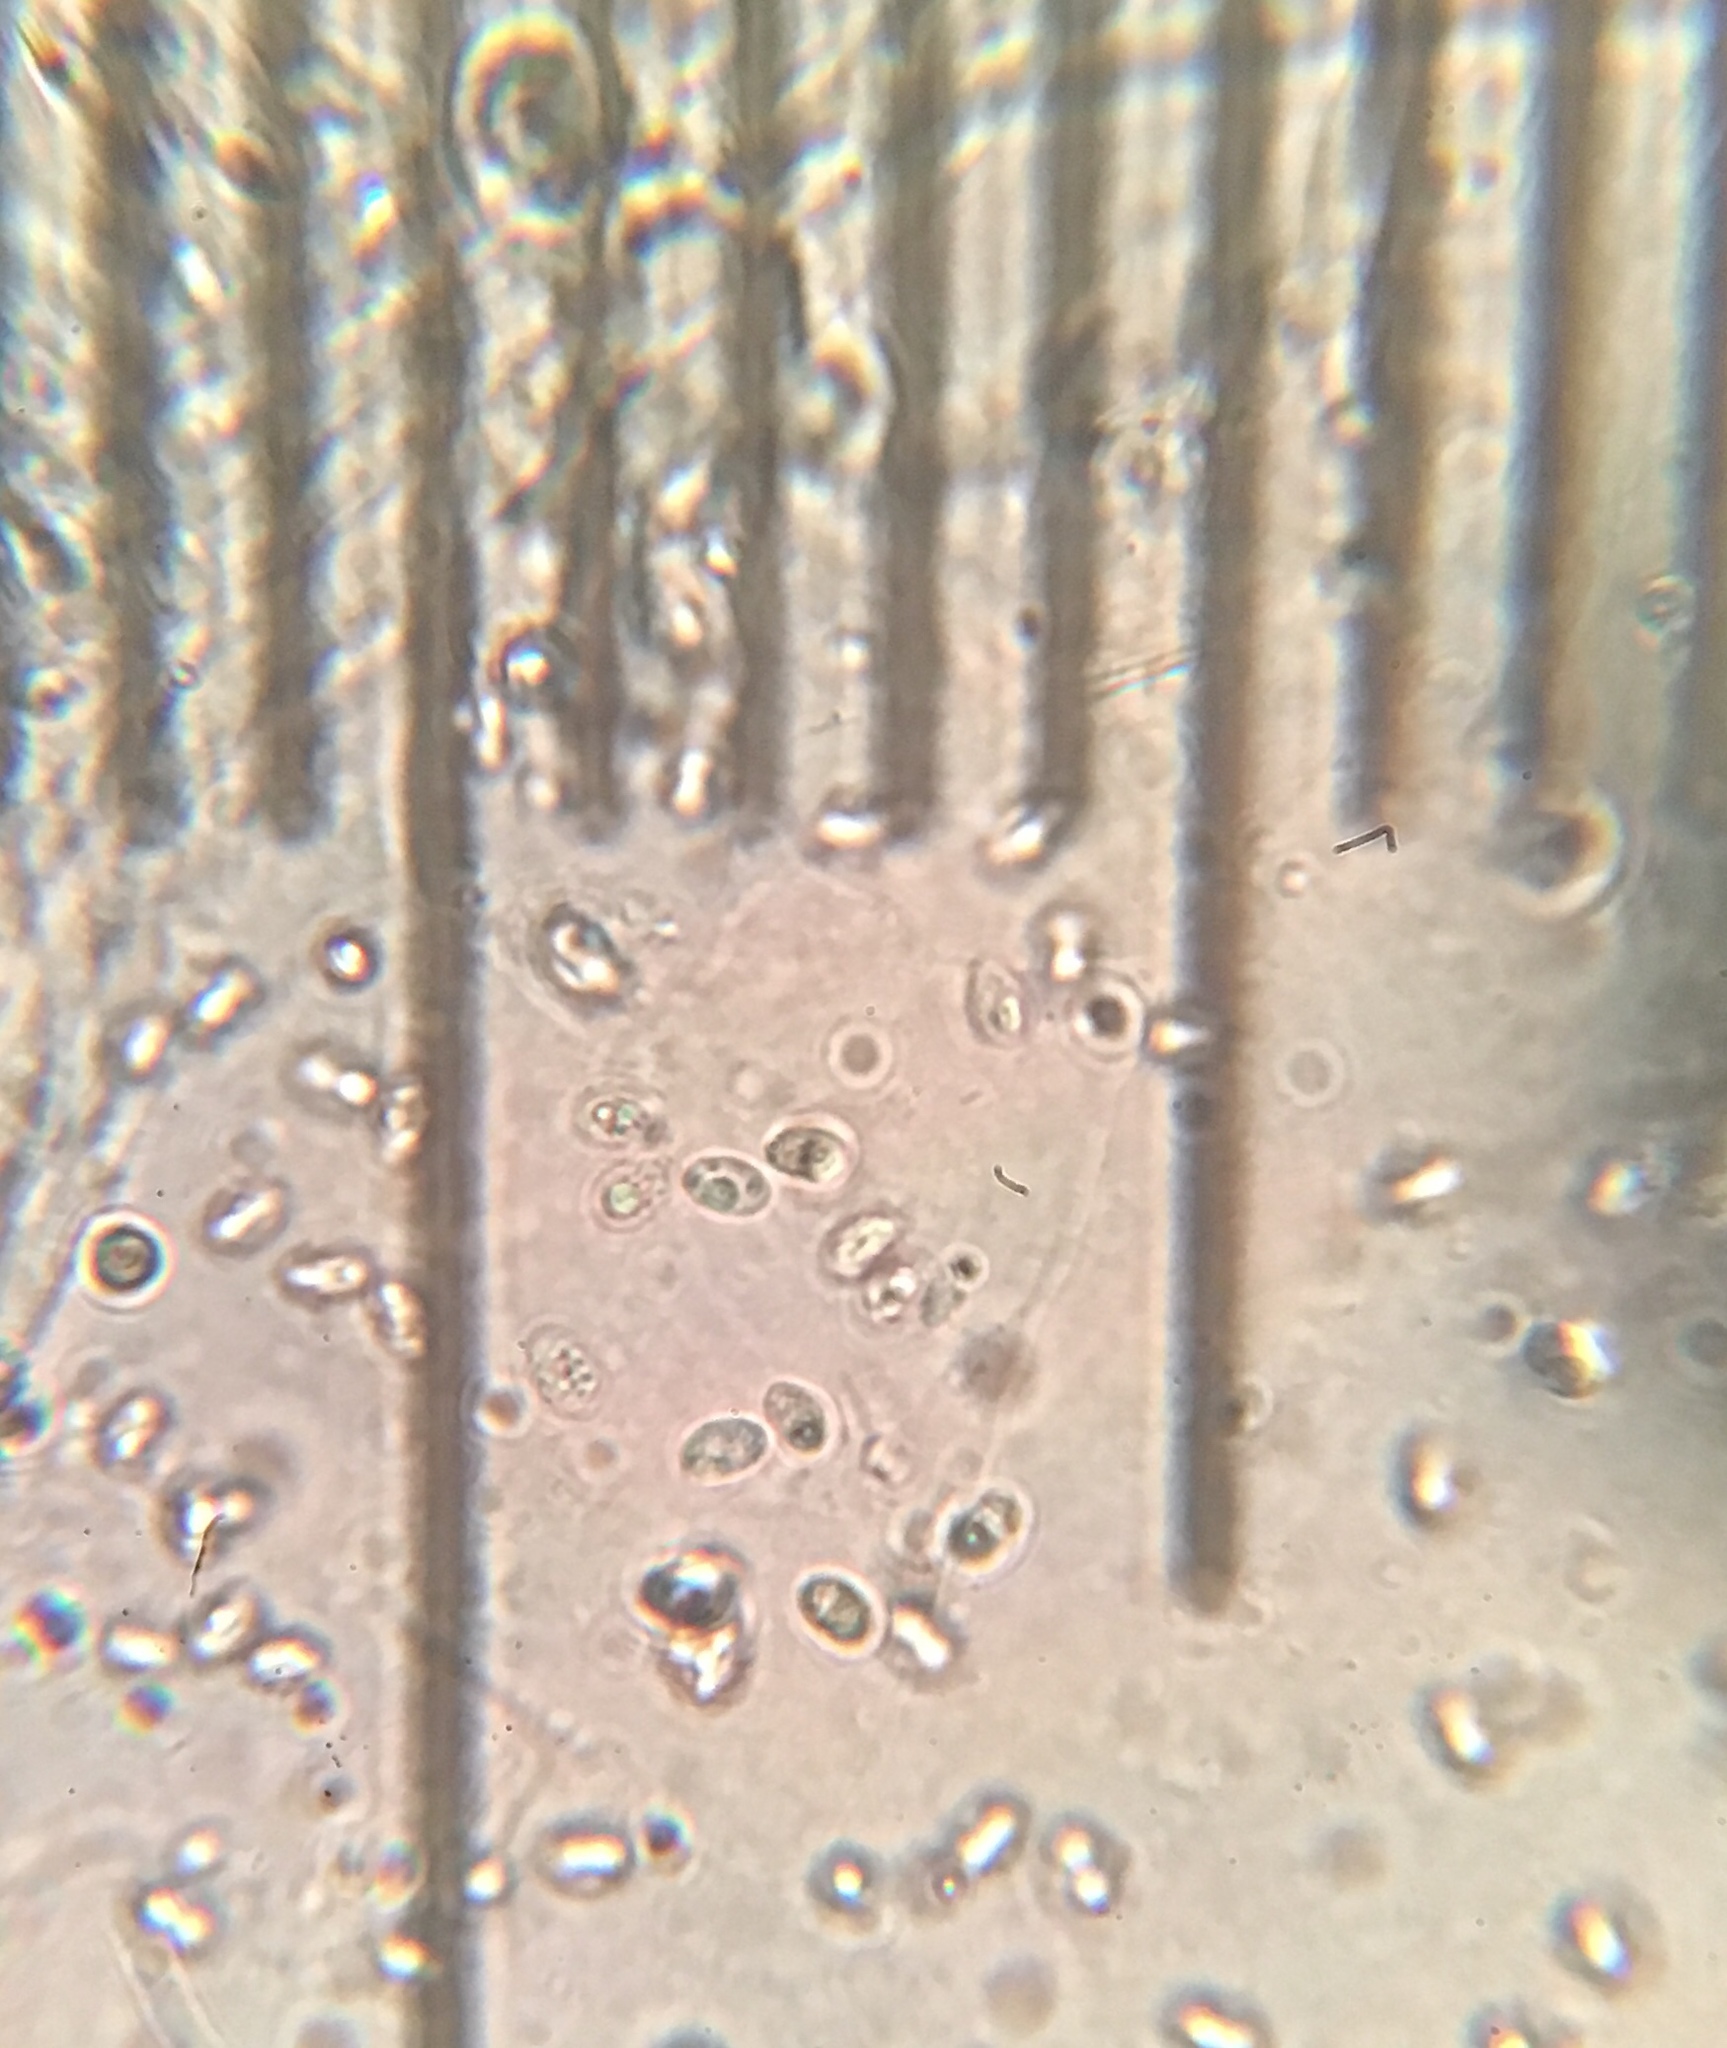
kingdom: Fungi
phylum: Basidiomycota
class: Agaricomycetes
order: Agaricales
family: Agaricaceae
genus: Leucopholiota
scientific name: Leucopholiota decorosa
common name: Decorated pholiota
